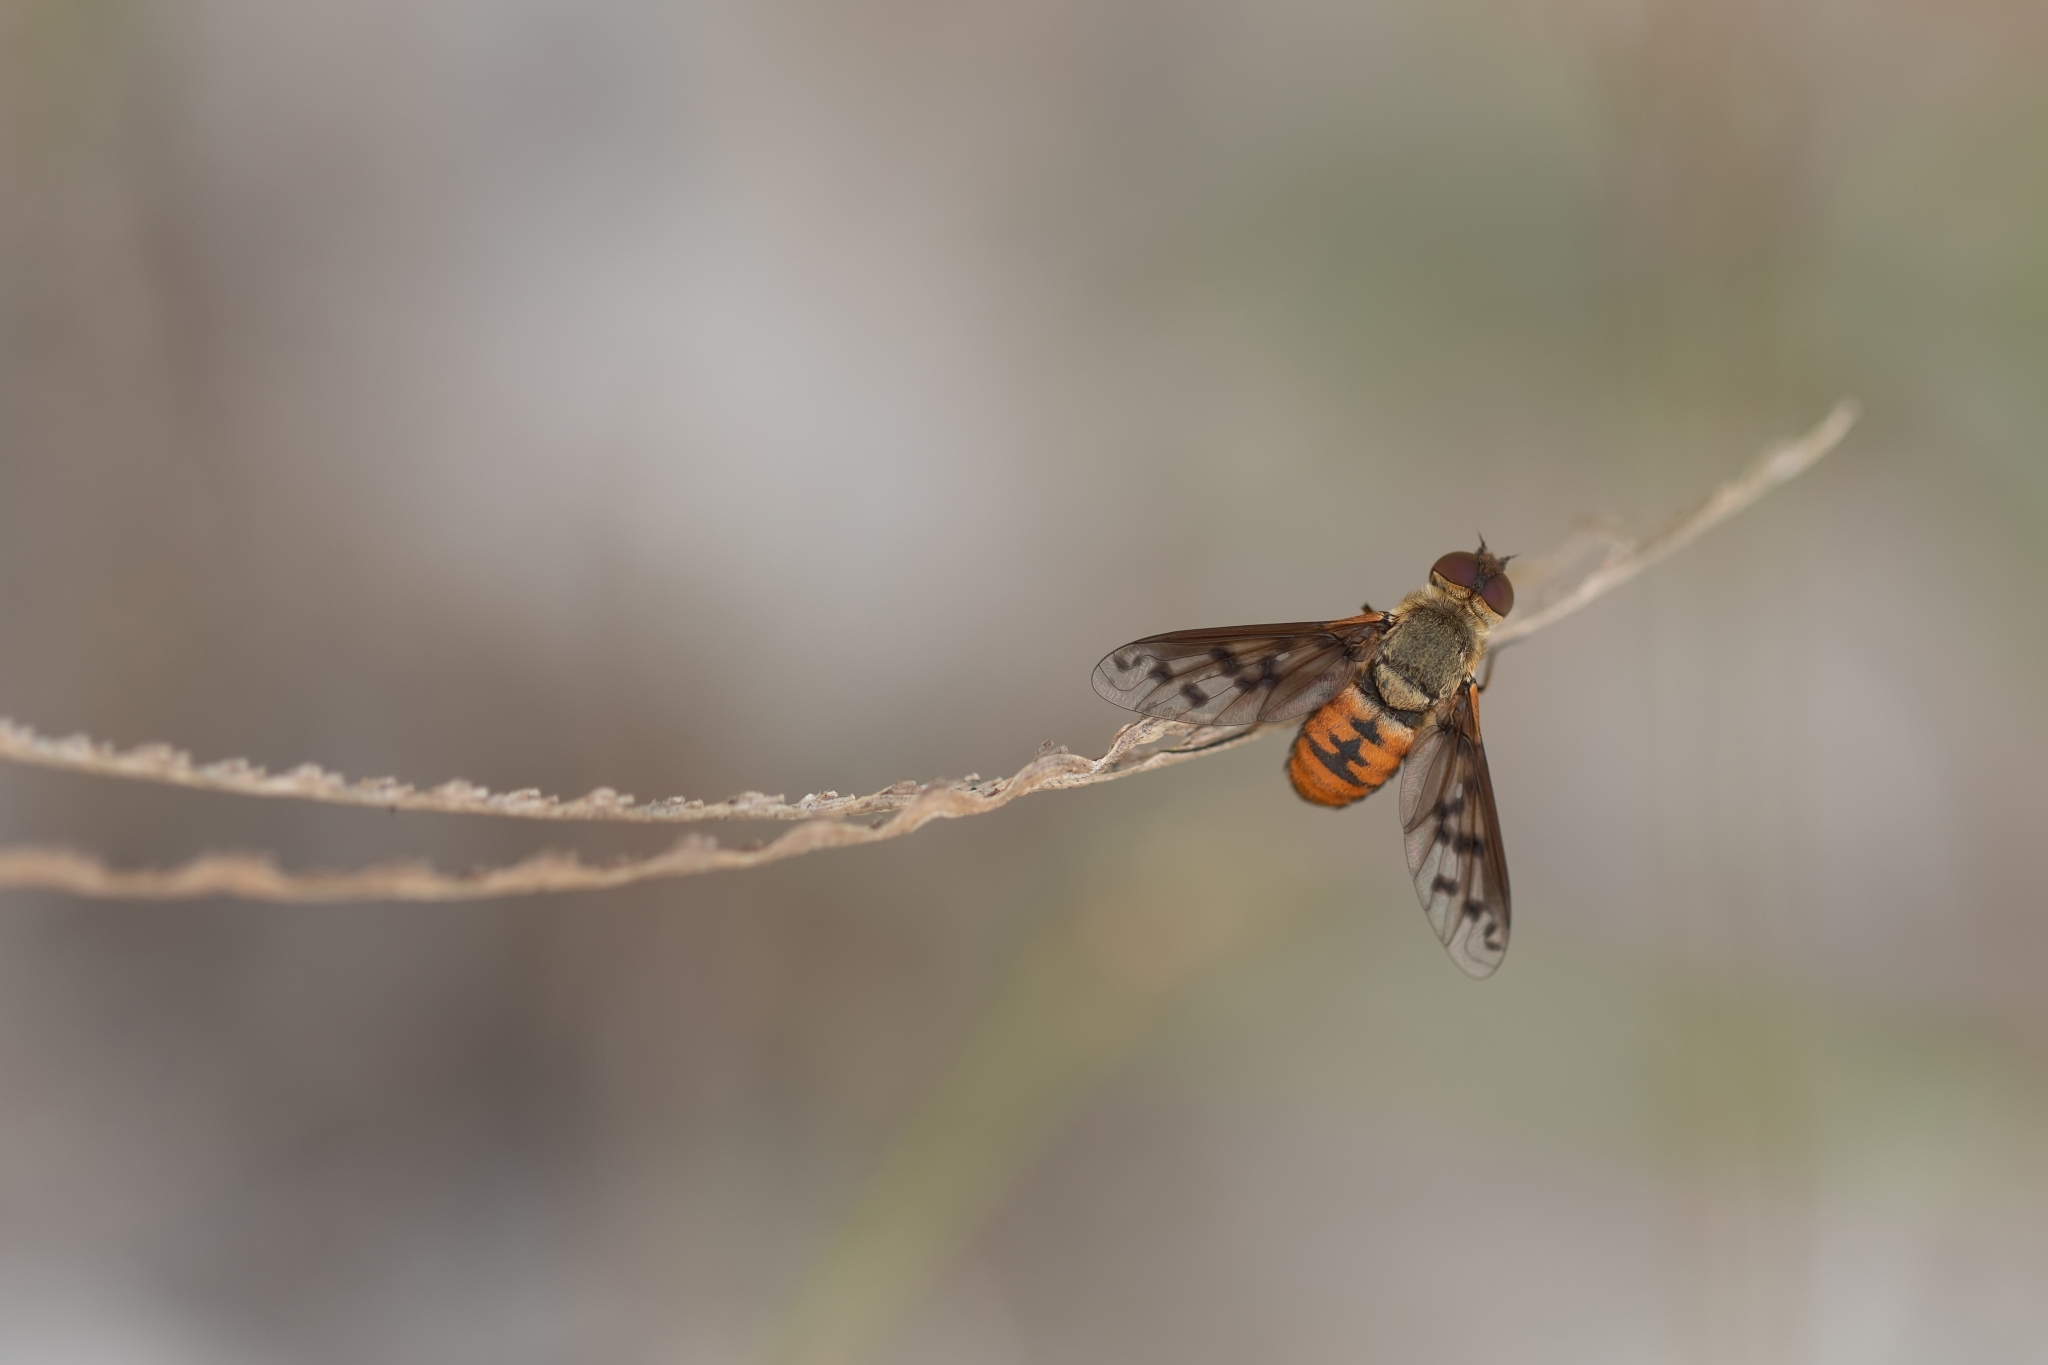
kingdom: Animalia
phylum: Arthropoda
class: Insecta
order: Diptera
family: Bombyliidae
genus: Neodiplocampta
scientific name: Neodiplocampta miranda
